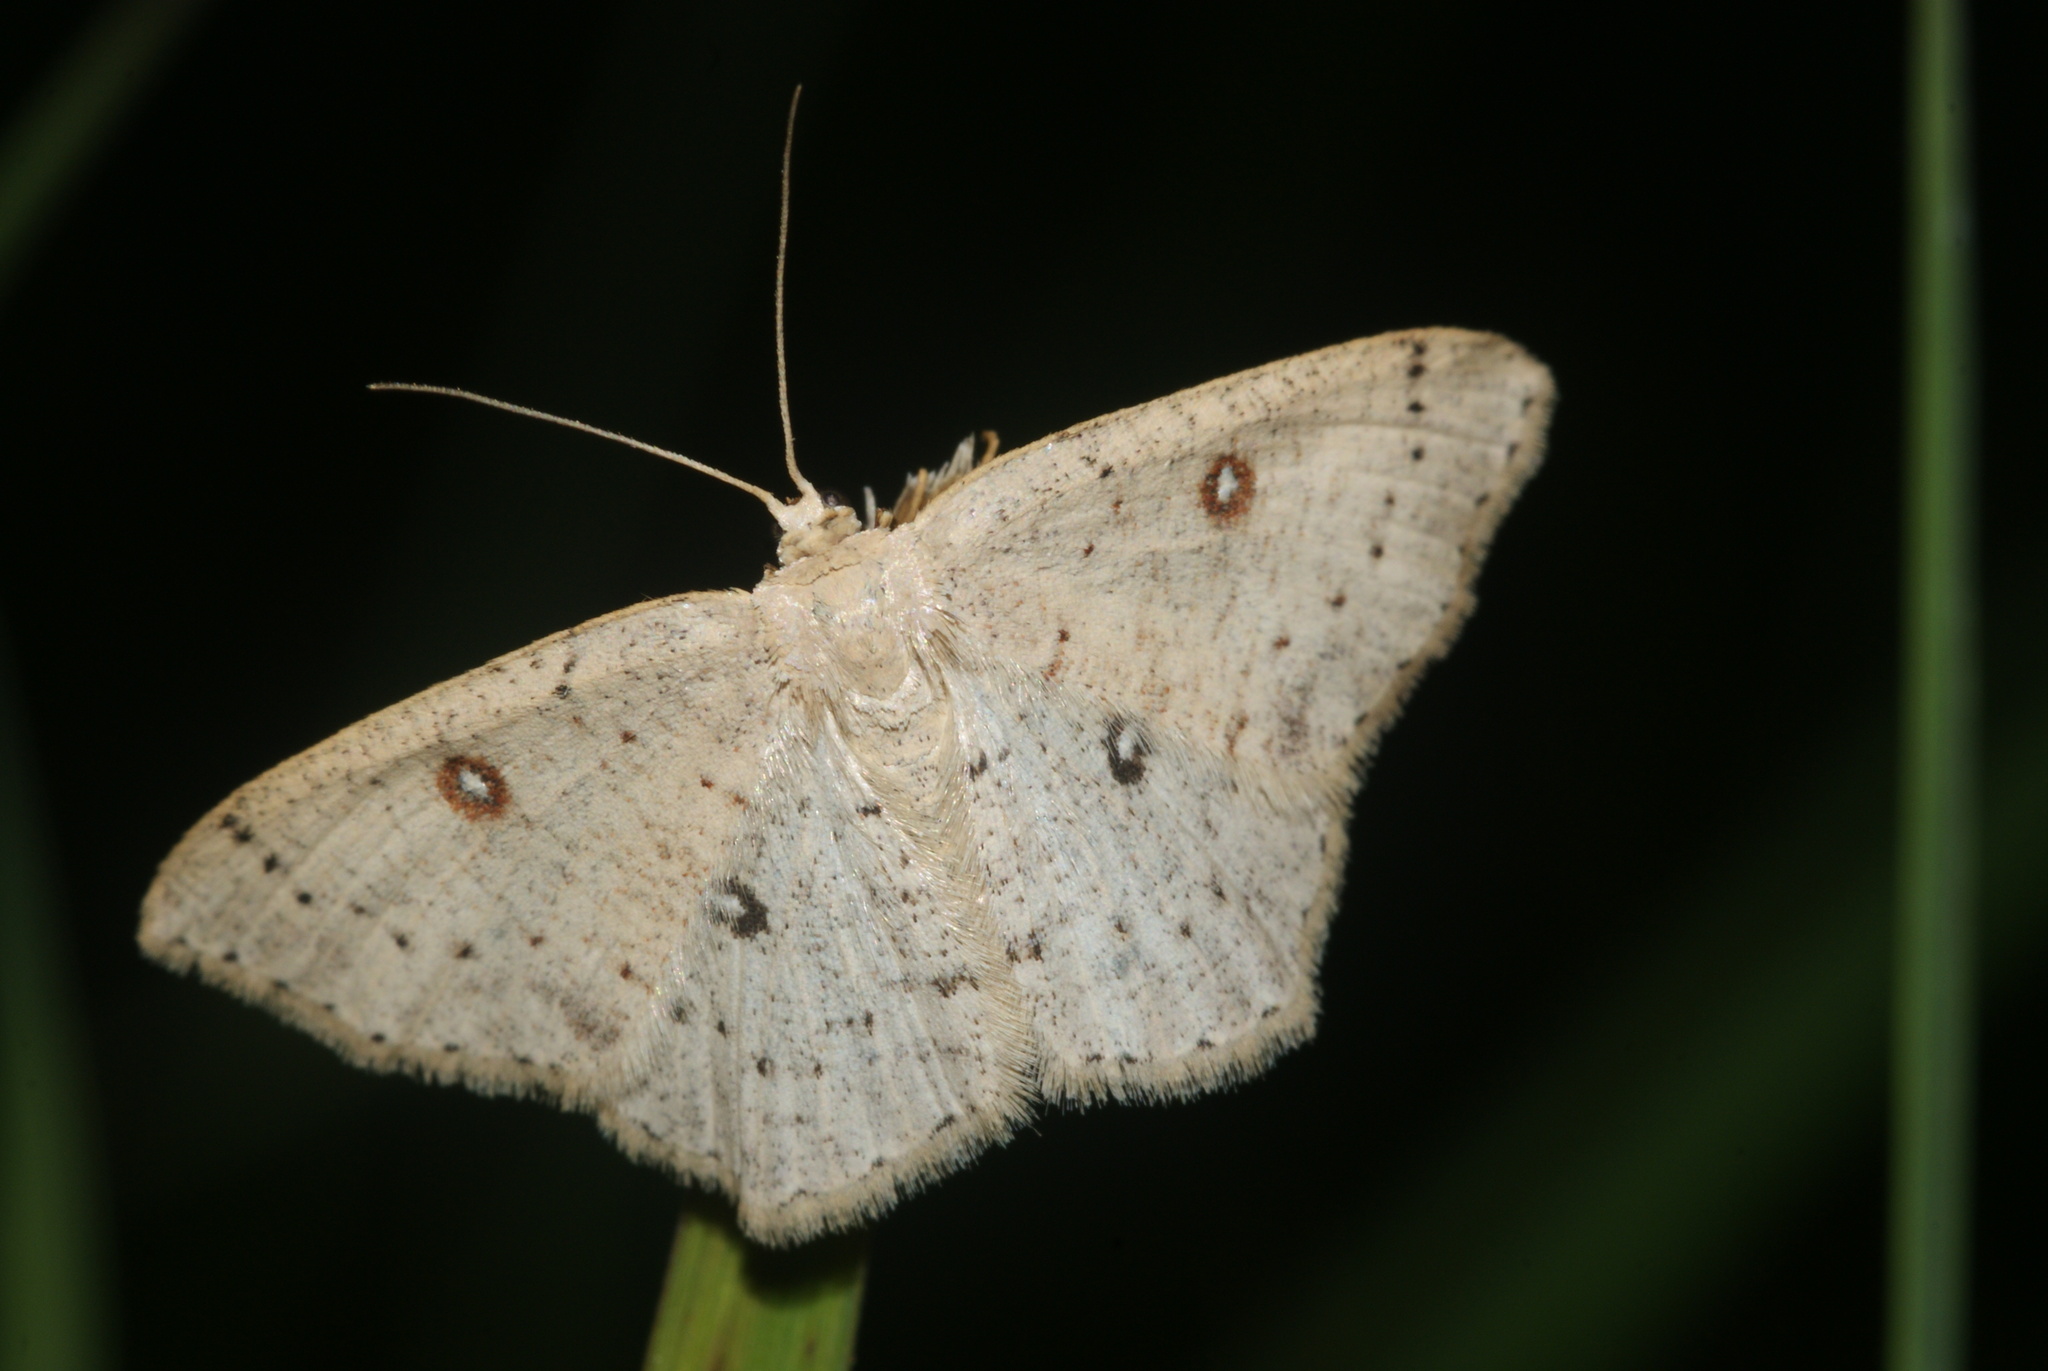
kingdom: Animalia
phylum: Arthropoda
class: Insecta
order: Lepidoptera
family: Geometridae
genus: Cyclophora
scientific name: Cyclophora albipunctata
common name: Birch mocha
